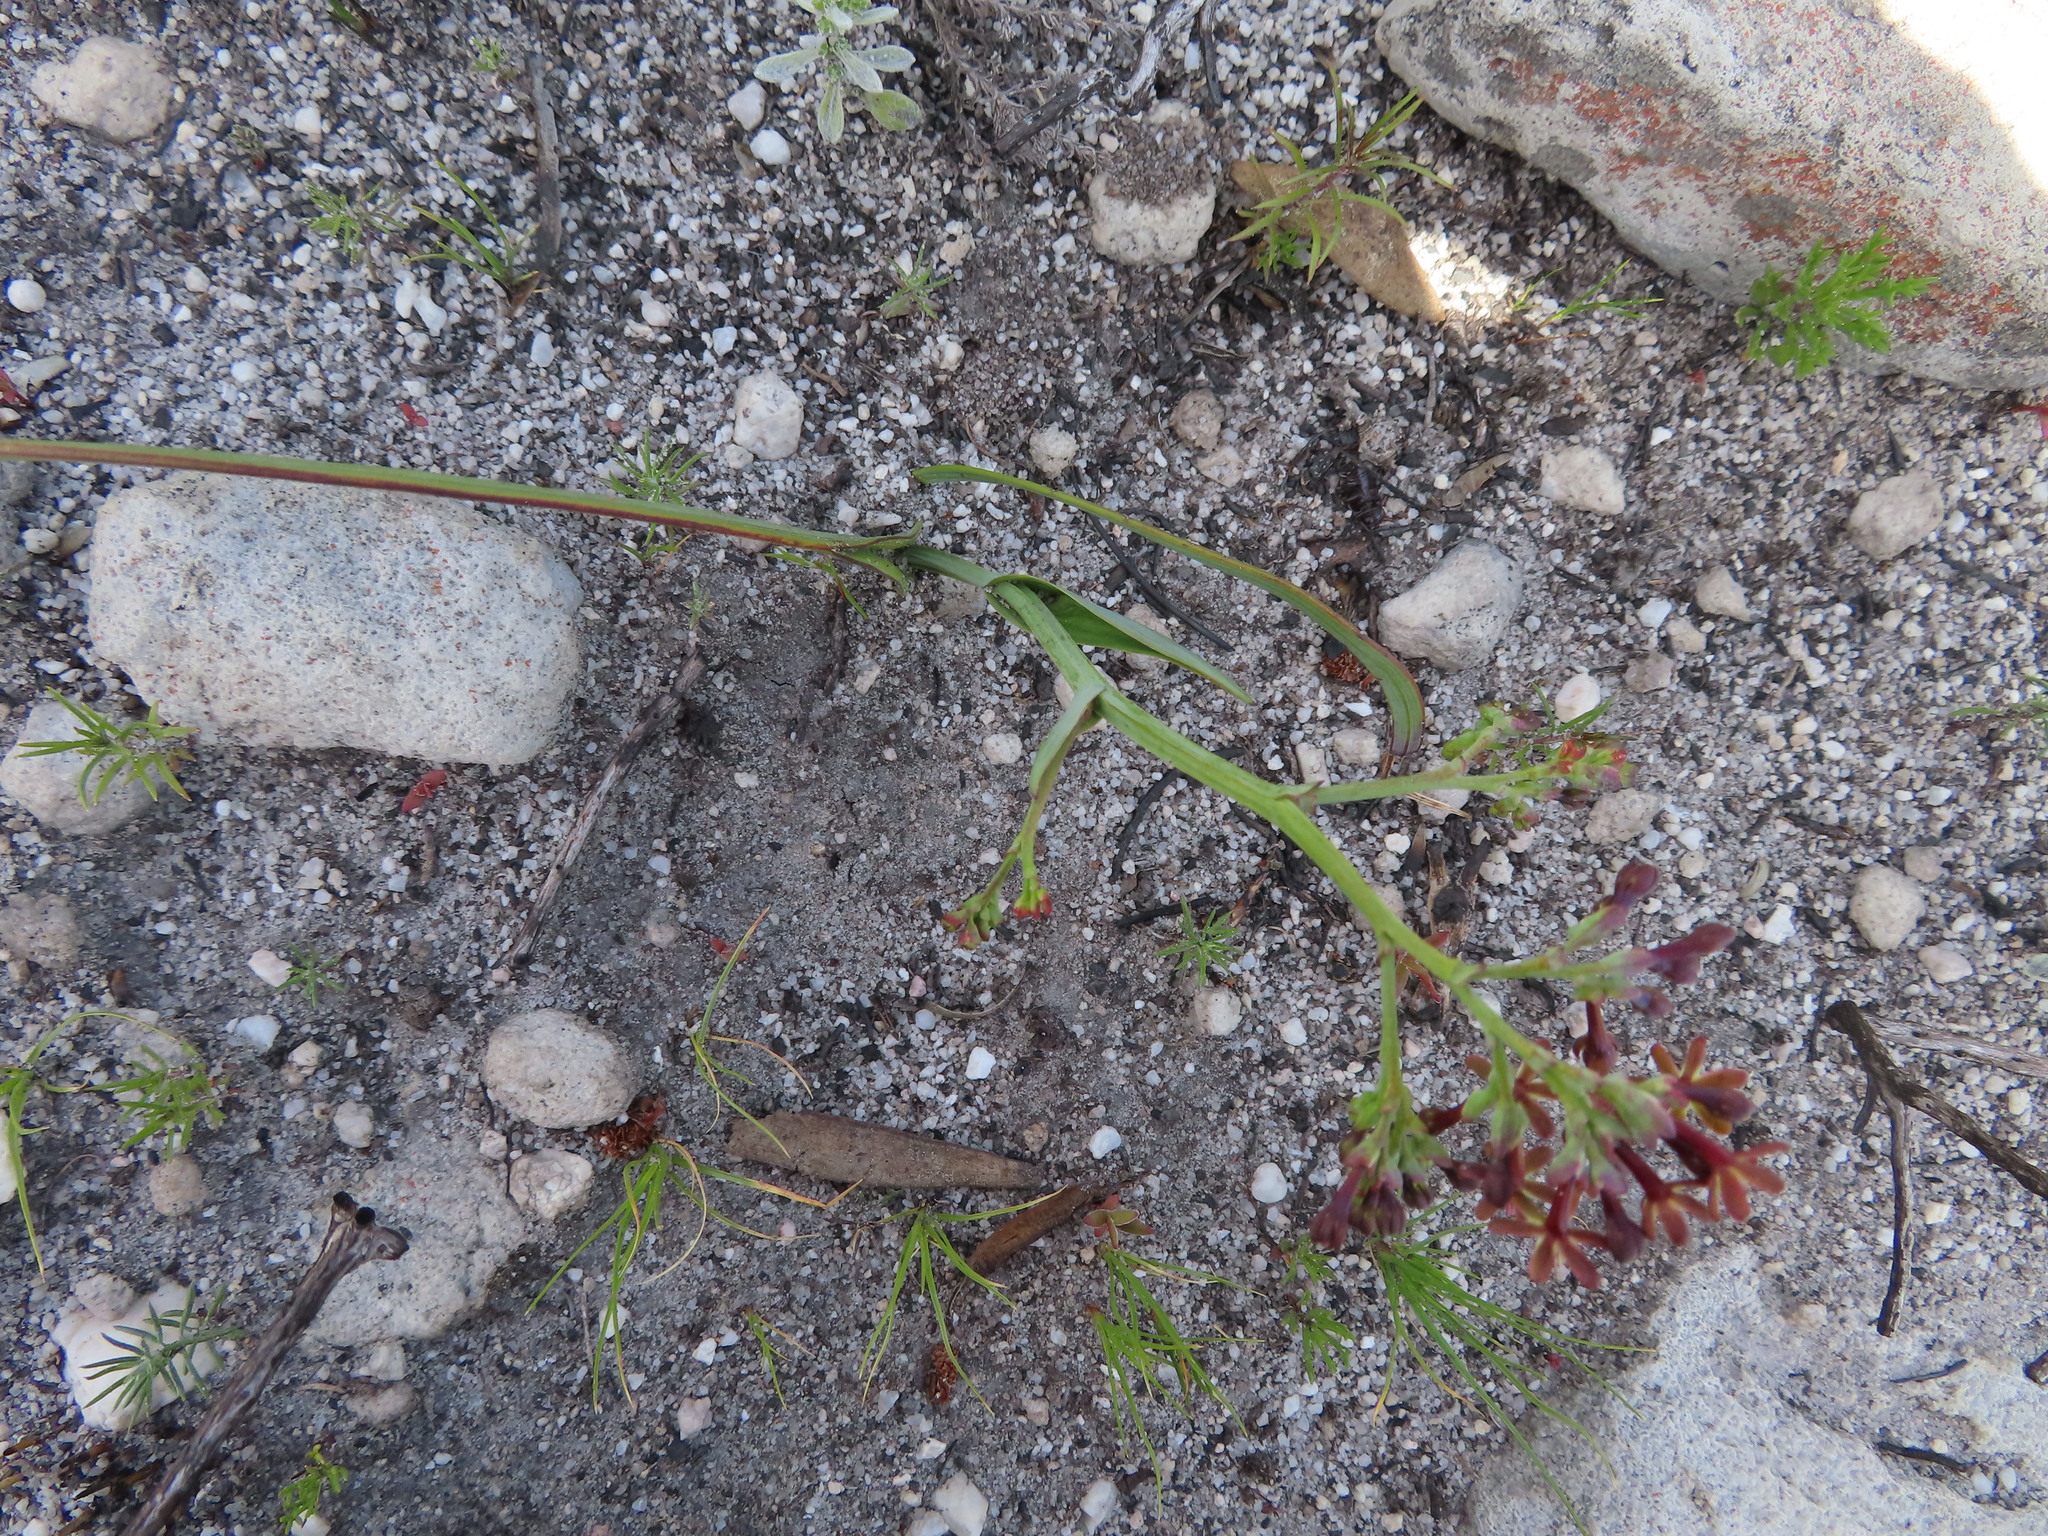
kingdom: Plantae
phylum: Tracheophyta
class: Liliopsida
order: Asparagales
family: Iridaceae
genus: Codonorhiza
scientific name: Codonorhiza micrantha
